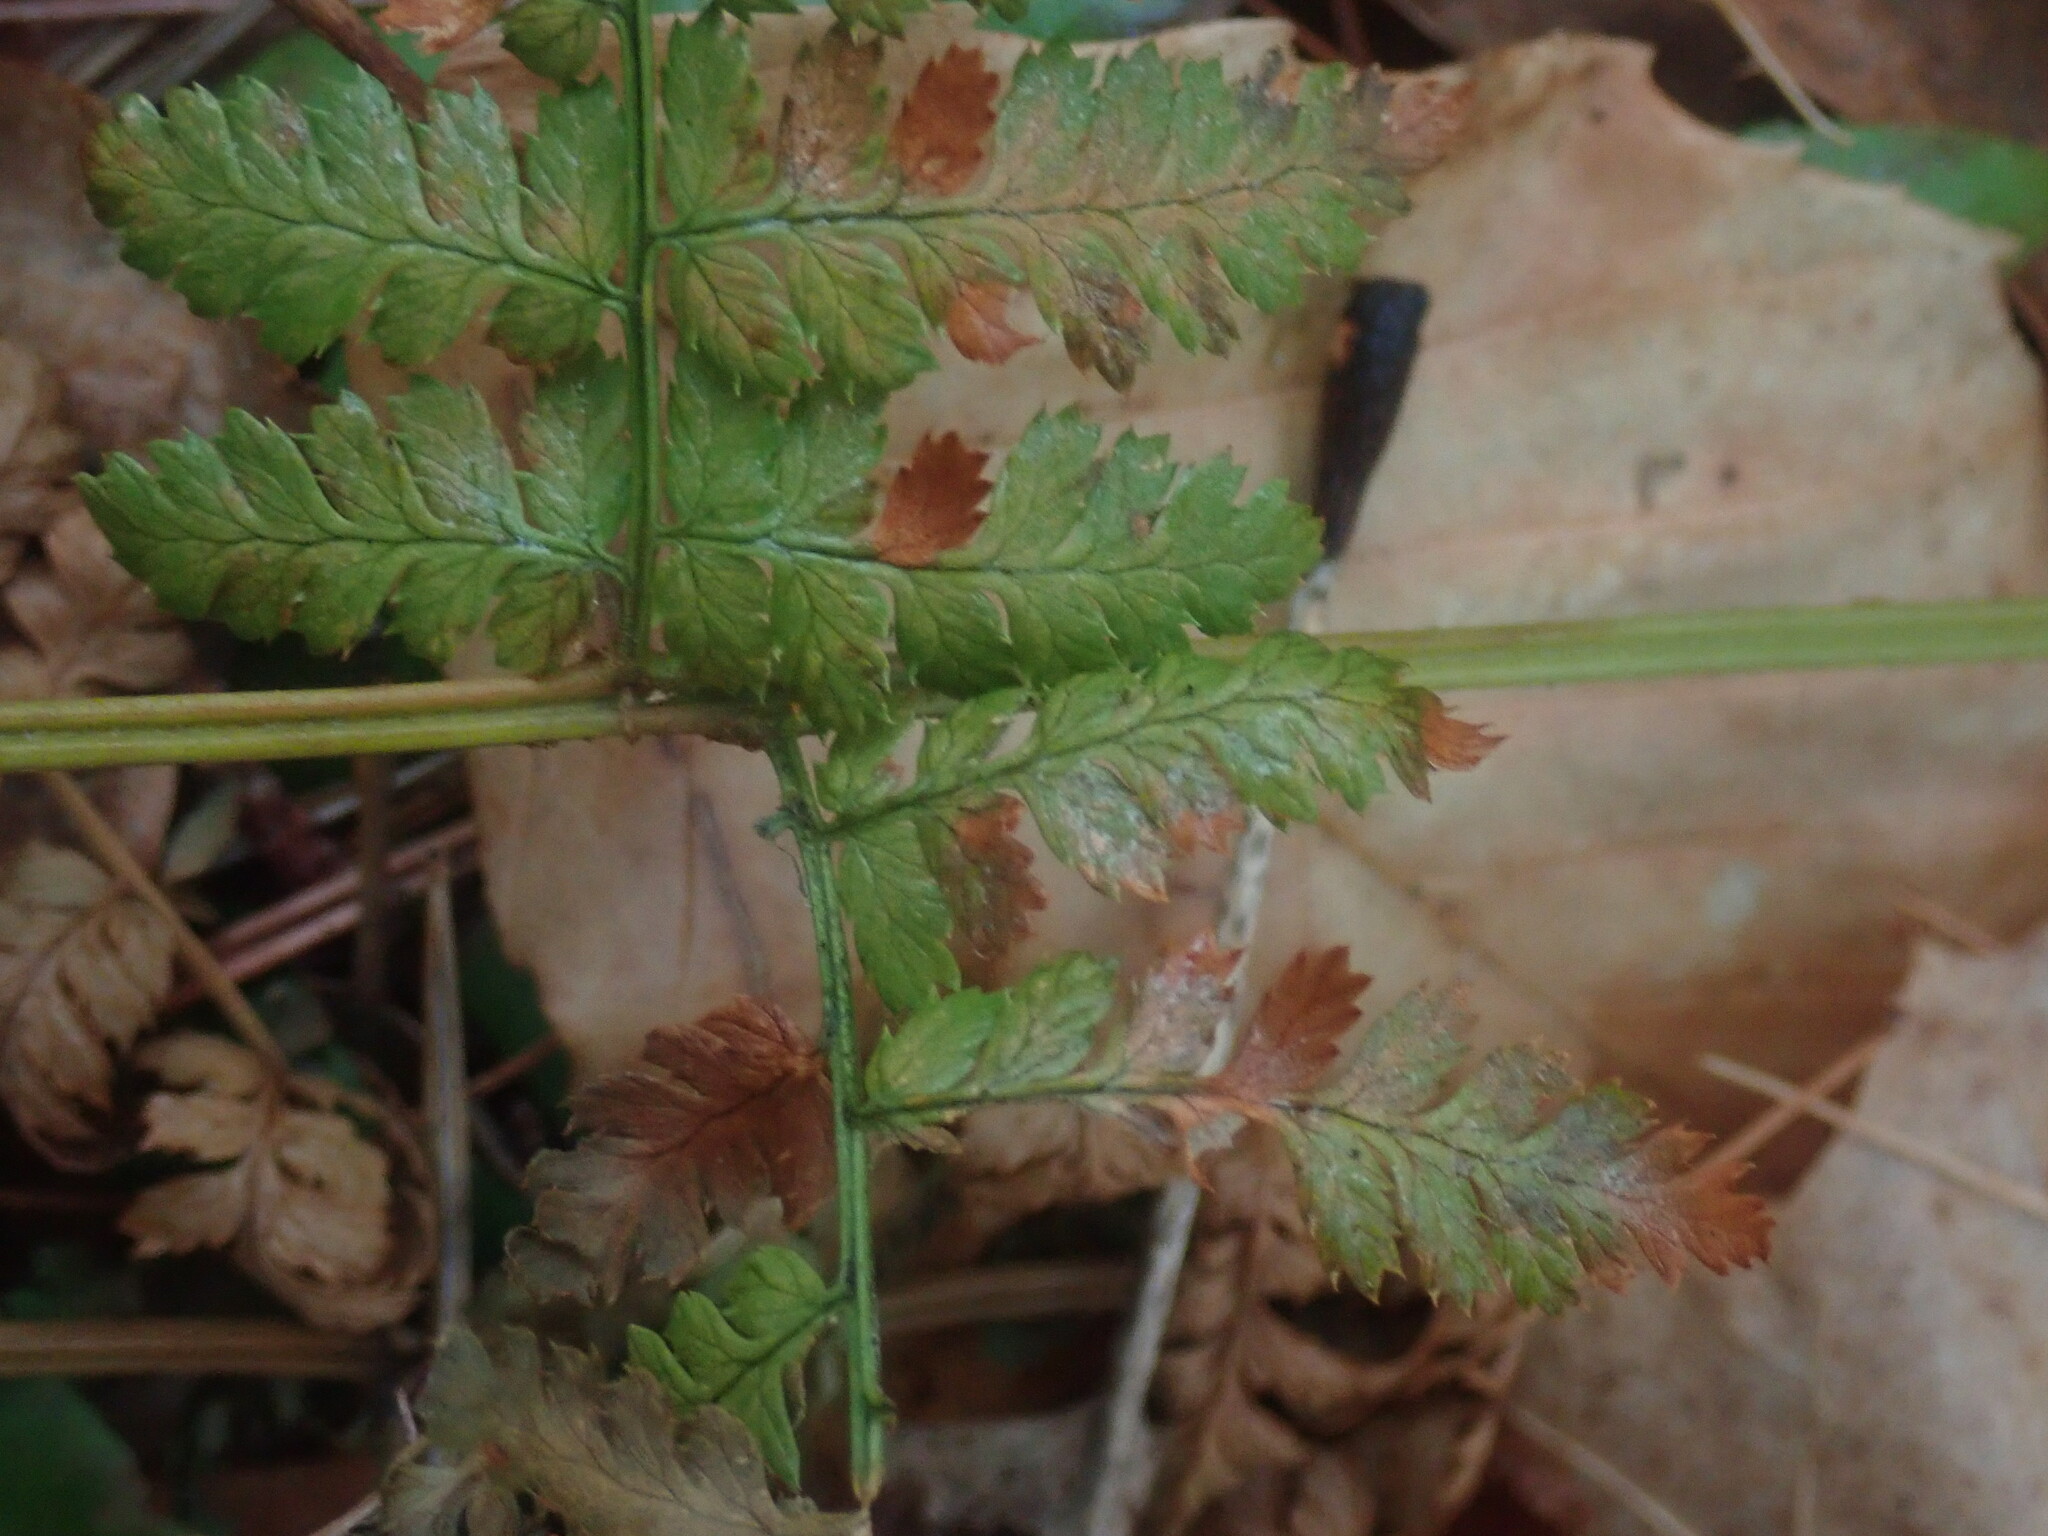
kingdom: Plantae
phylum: Tracheophyta
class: Polypodiopsida
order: Polypodiales
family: Dryopteridaceae
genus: Dryopteris
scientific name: Dryopteris intermedia
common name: Evergreen wood fern
